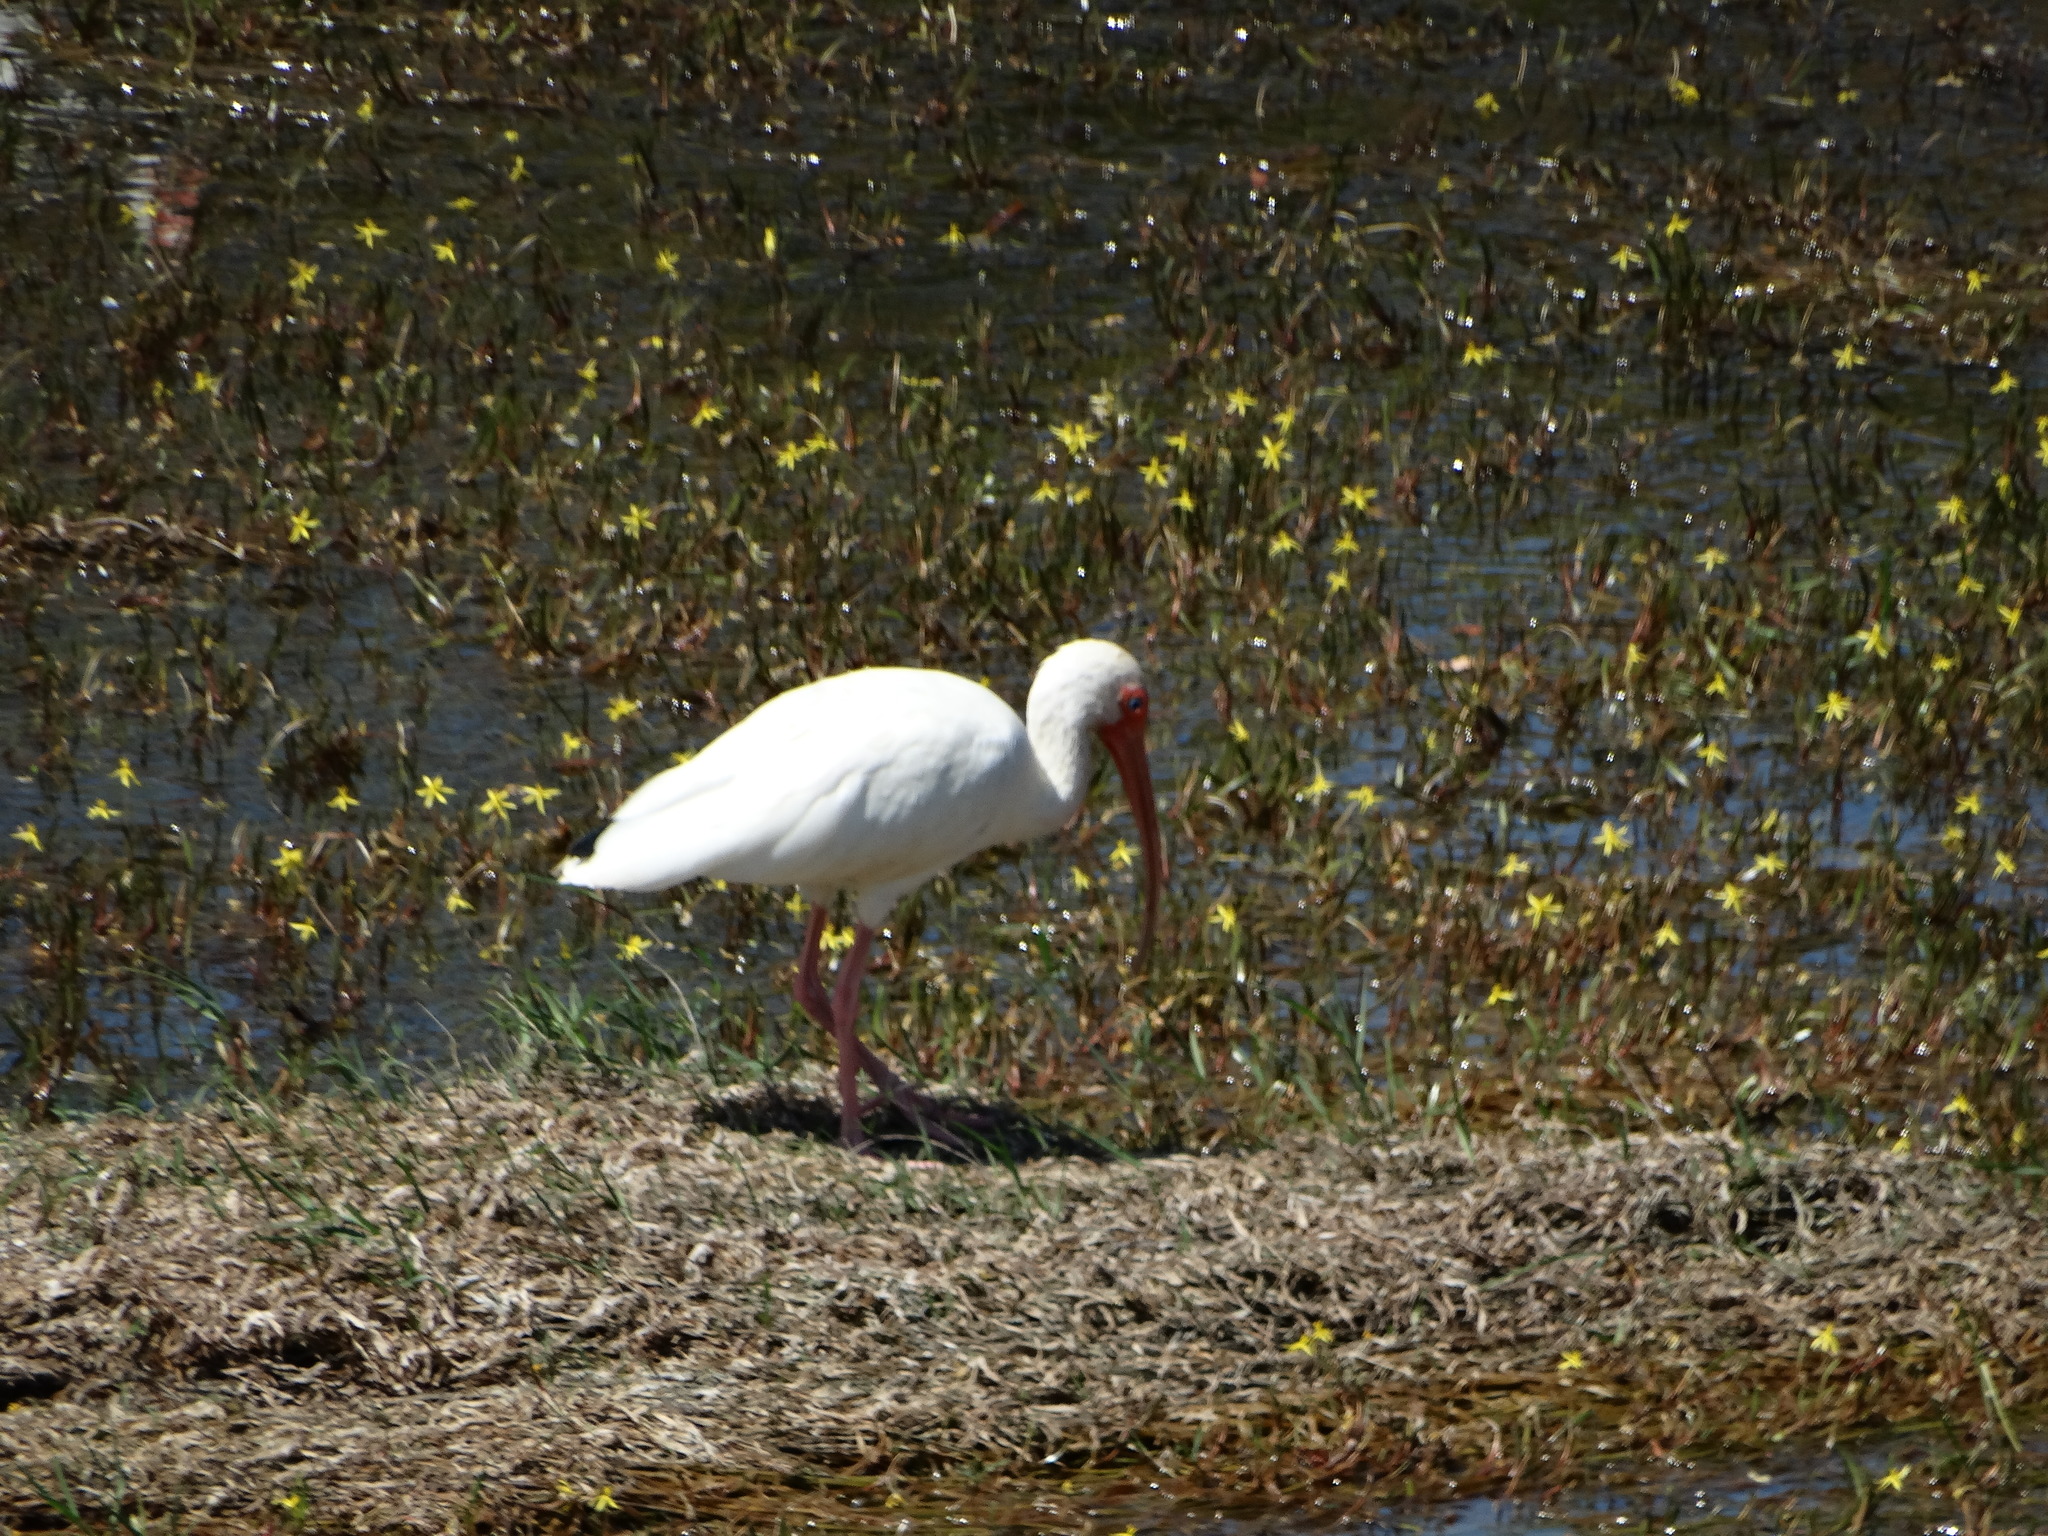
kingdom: Animalia
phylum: Chordata
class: Aves
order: Pelecaniformes
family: Threskiornithidae
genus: Eudocimus
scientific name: Eudocimus albus
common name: White ibis
